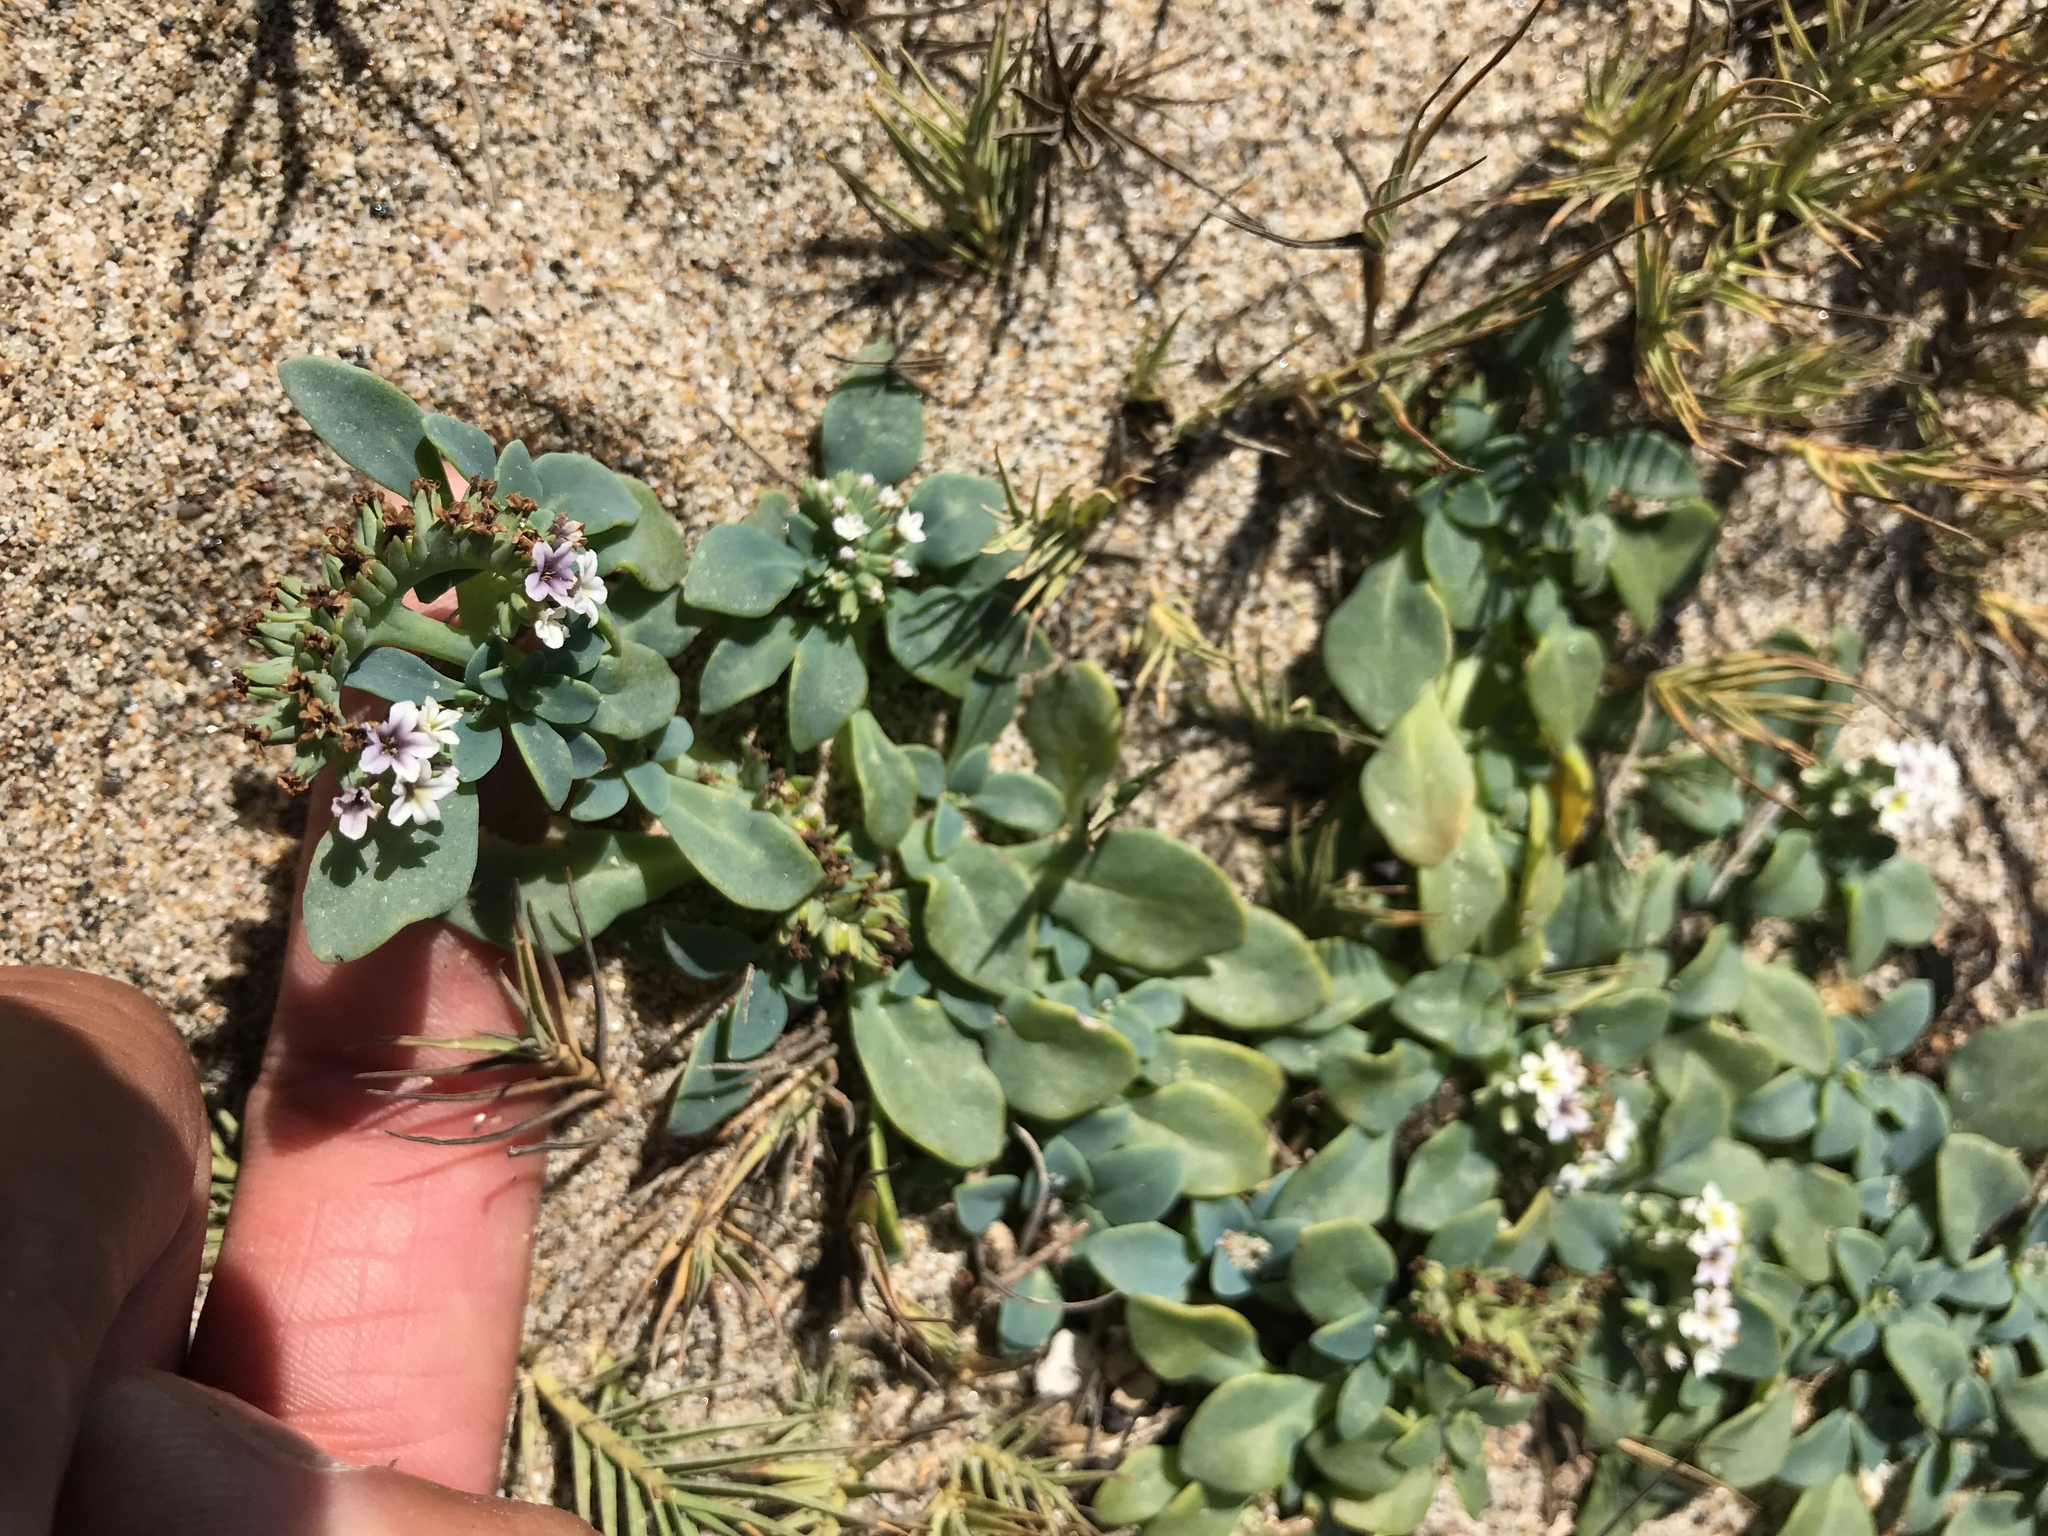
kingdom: Plantae
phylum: Tracheophyta
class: Magnoliopsida
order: Boraginales
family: Heliotropiaceae
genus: Heliotropium
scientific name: Heliotropium curassavicum
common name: Seaside heliotrope
